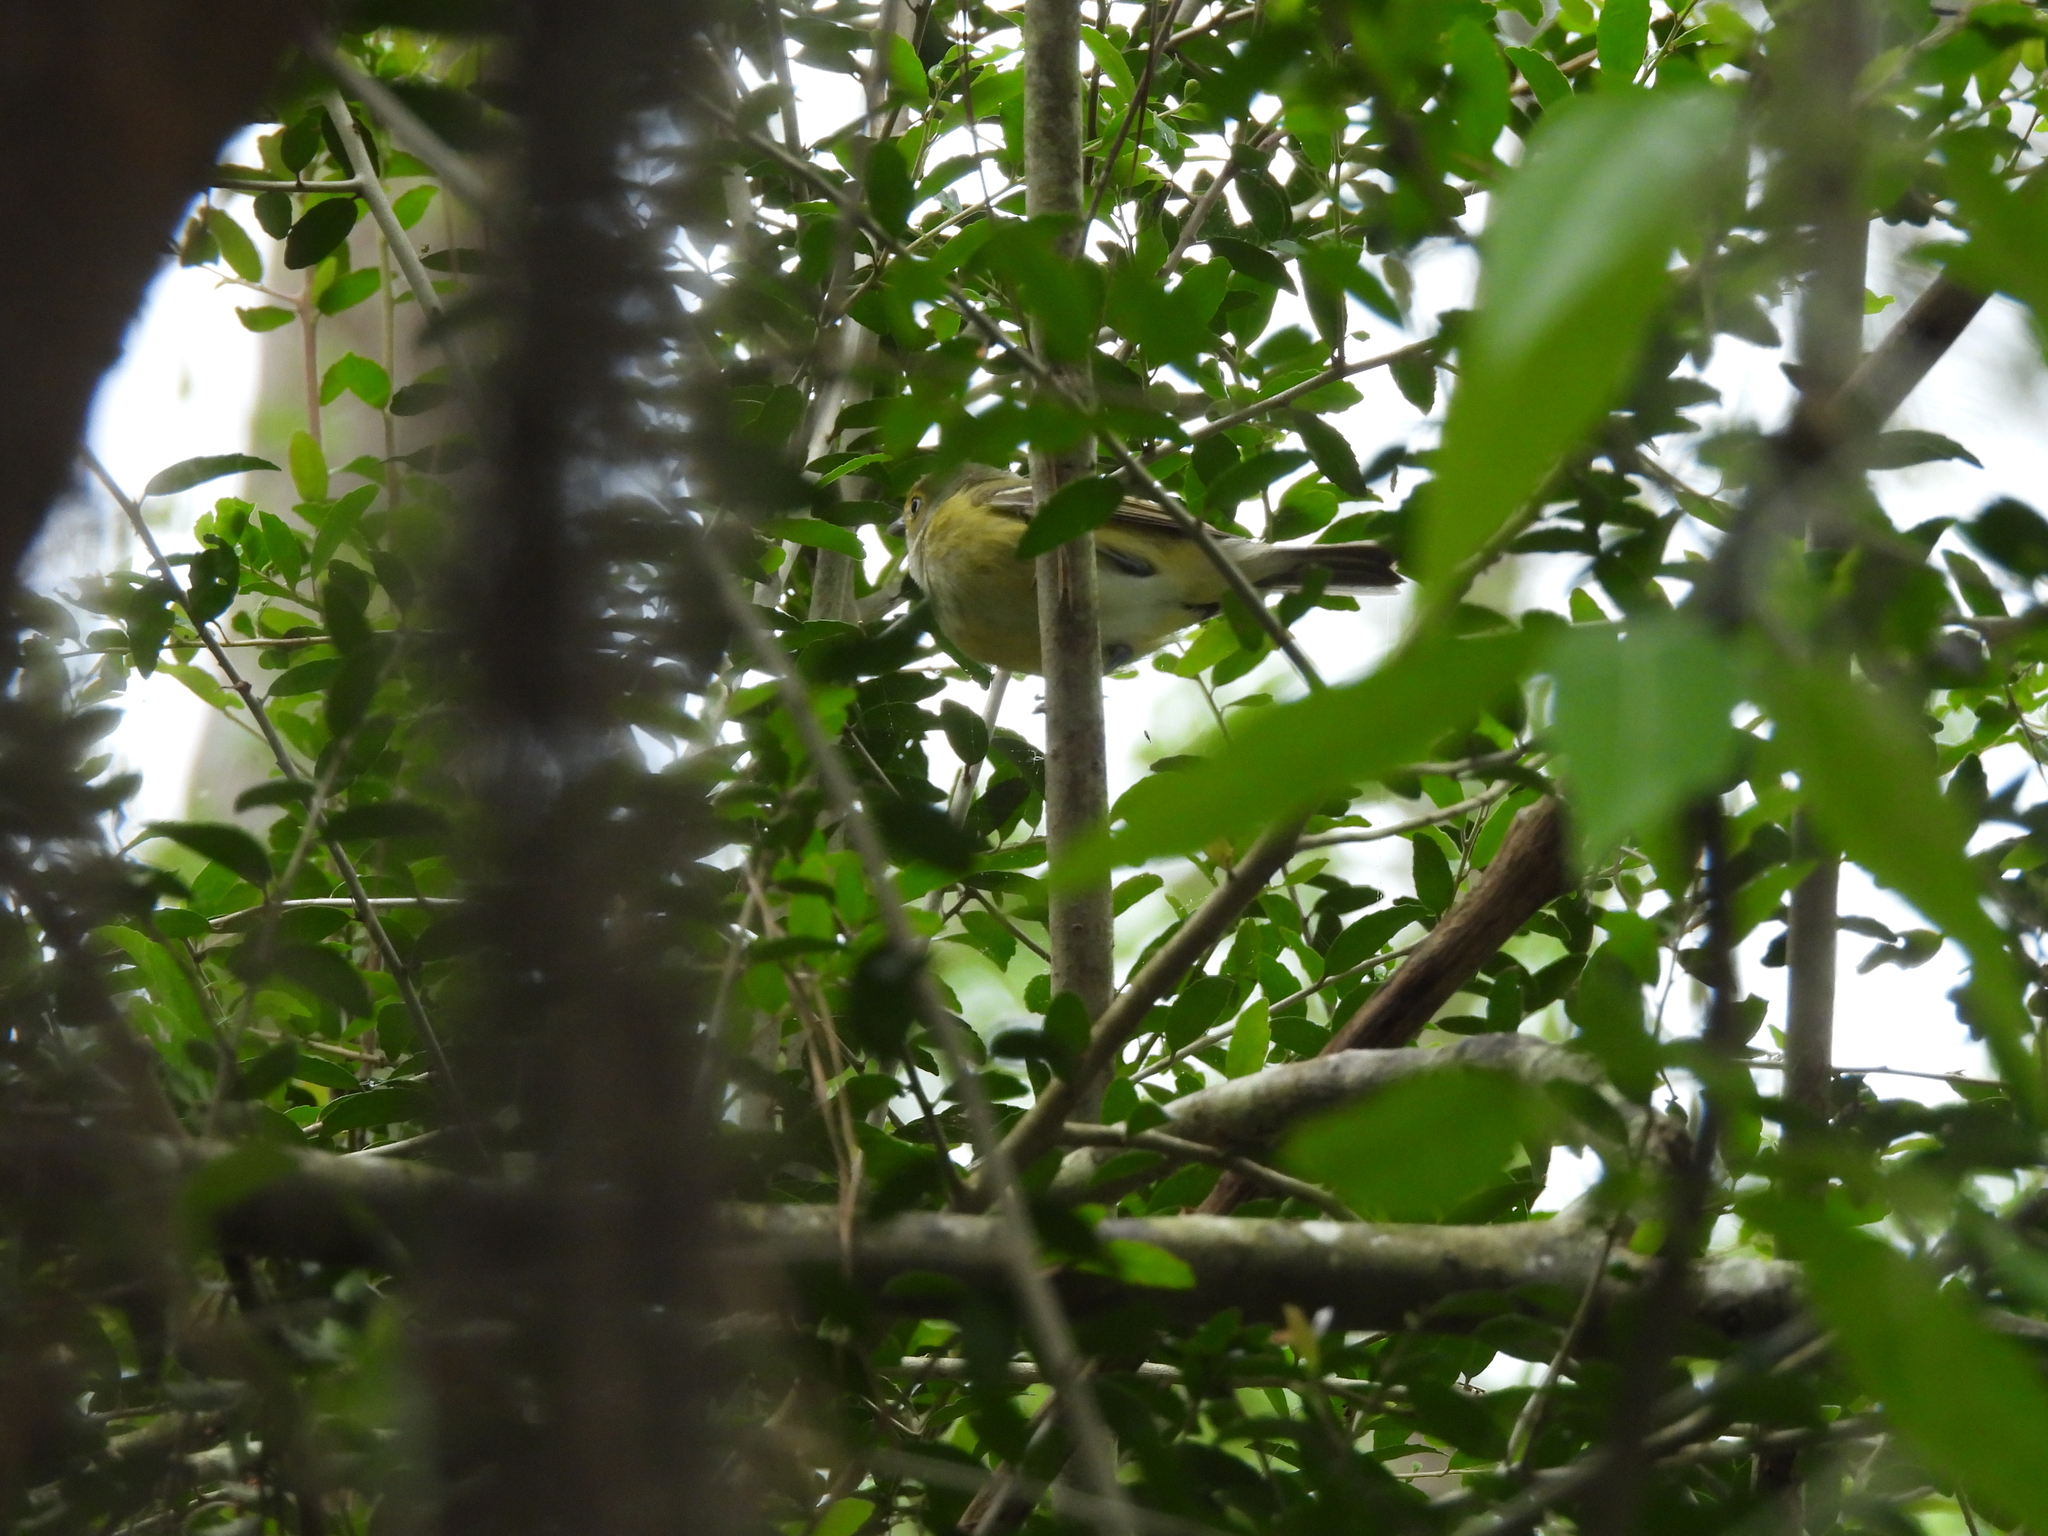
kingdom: Animalia
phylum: Chordata
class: Aves
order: Passeriformes
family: Vireonidae
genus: Vireo
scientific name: Vireo griseus
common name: White-eyed vireo
